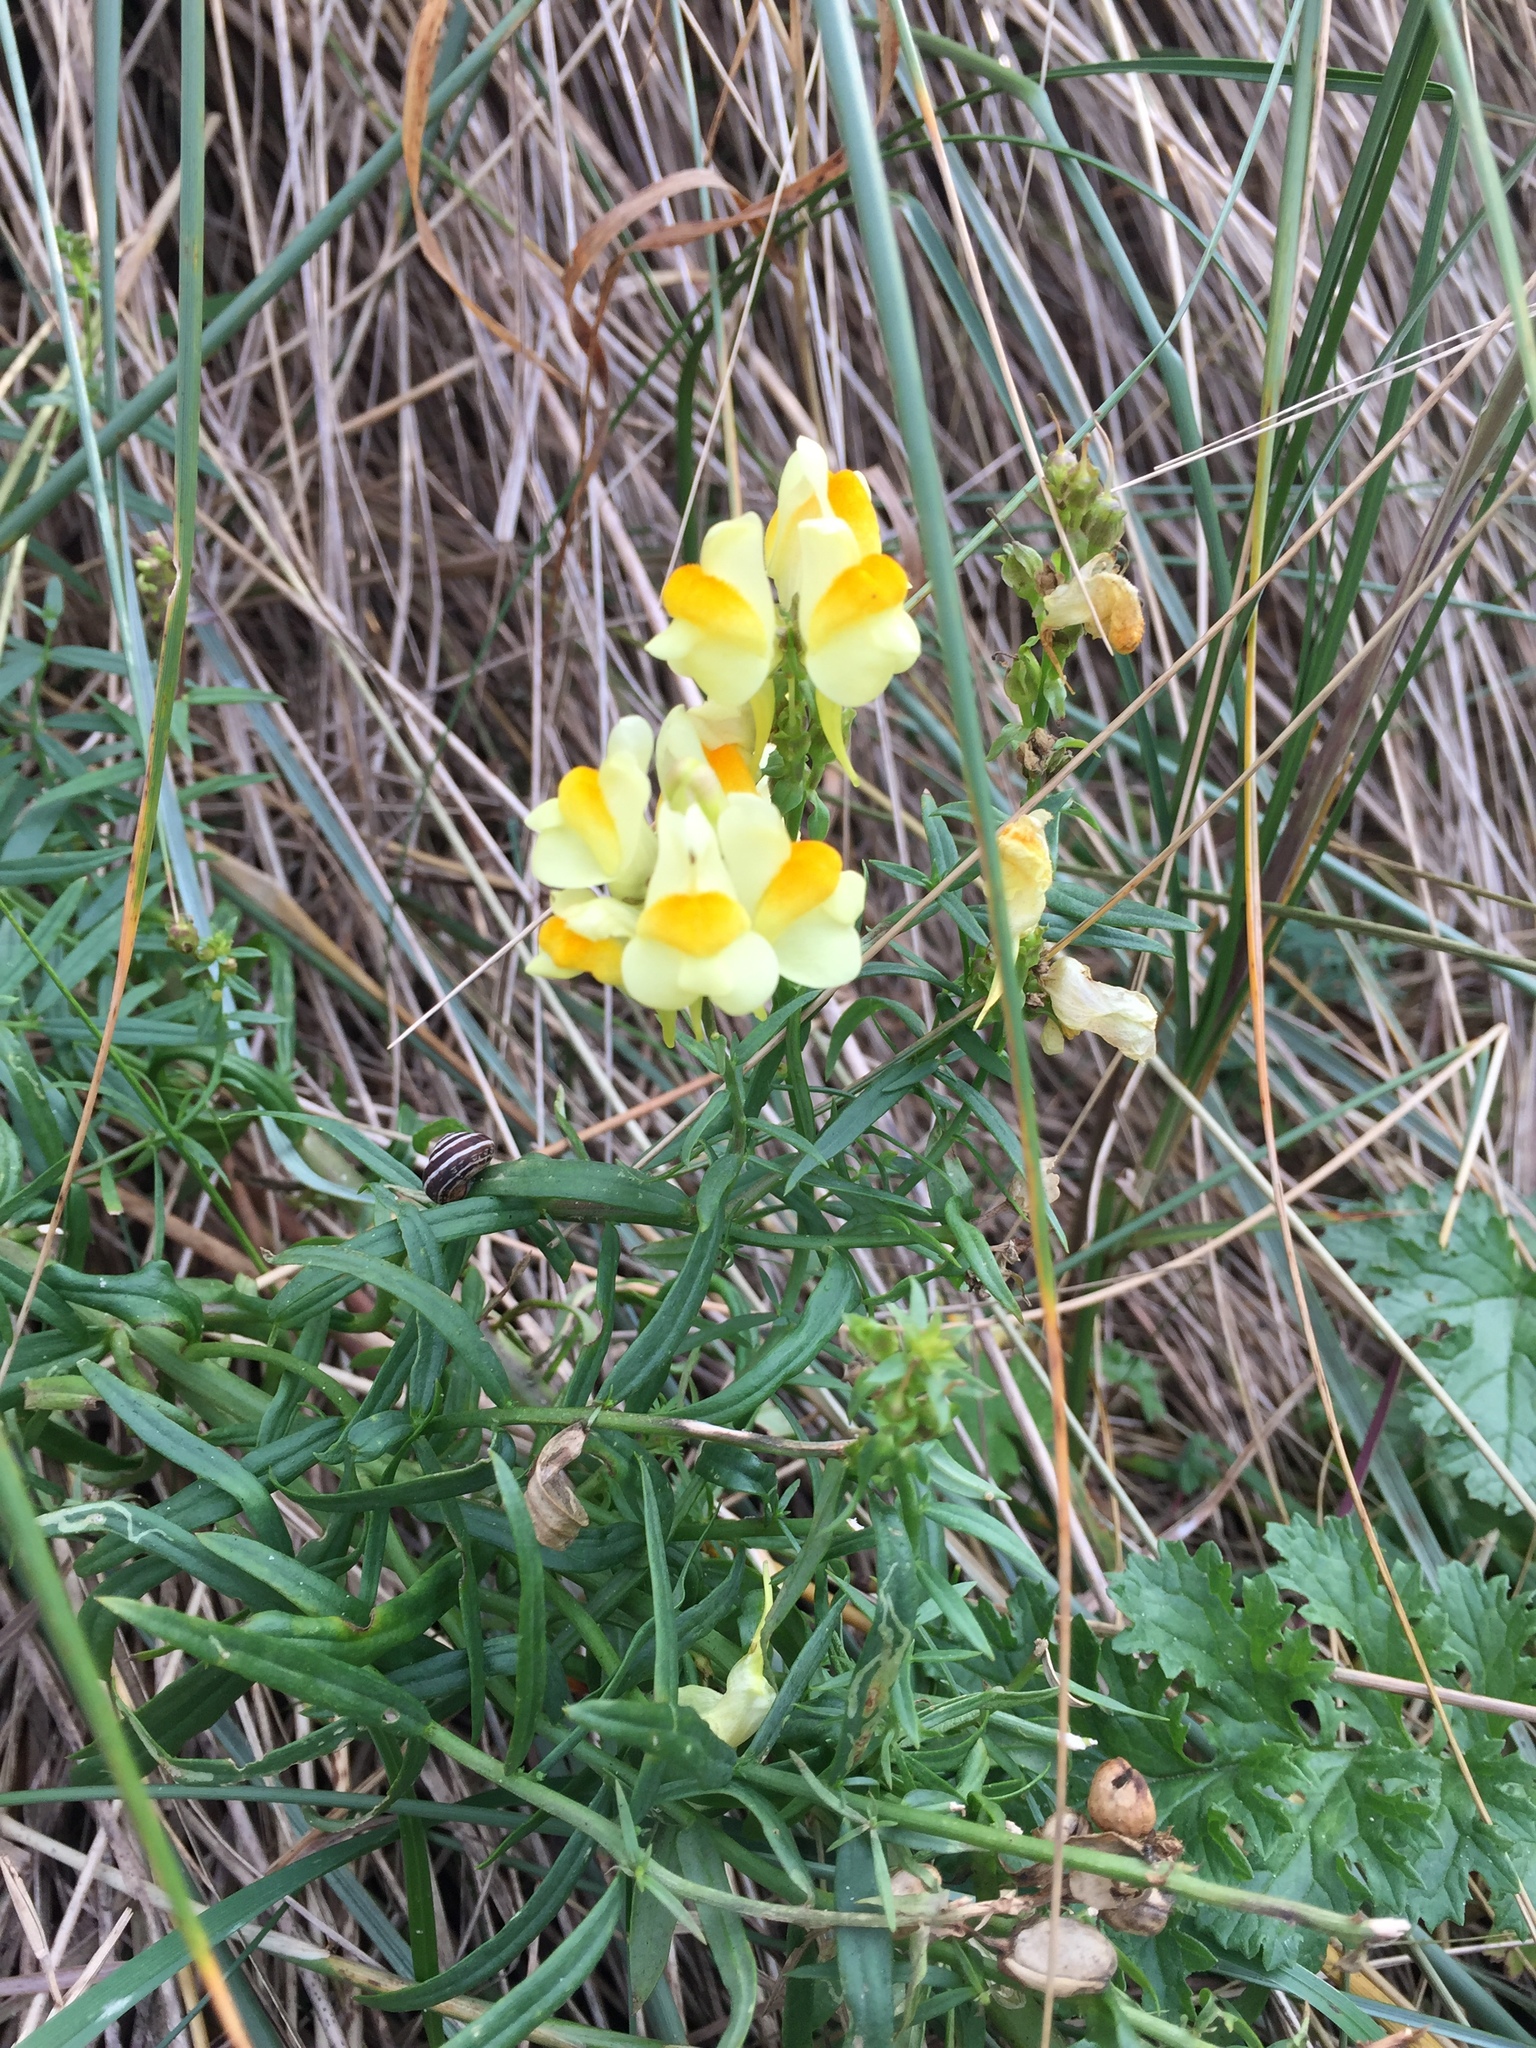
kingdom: Plantae
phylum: Tracheophyta
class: Magnoliopsida
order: Lamiales
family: Plantaginaceae
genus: Linaria
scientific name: Linaria vulgaris
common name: Butter and eggs
